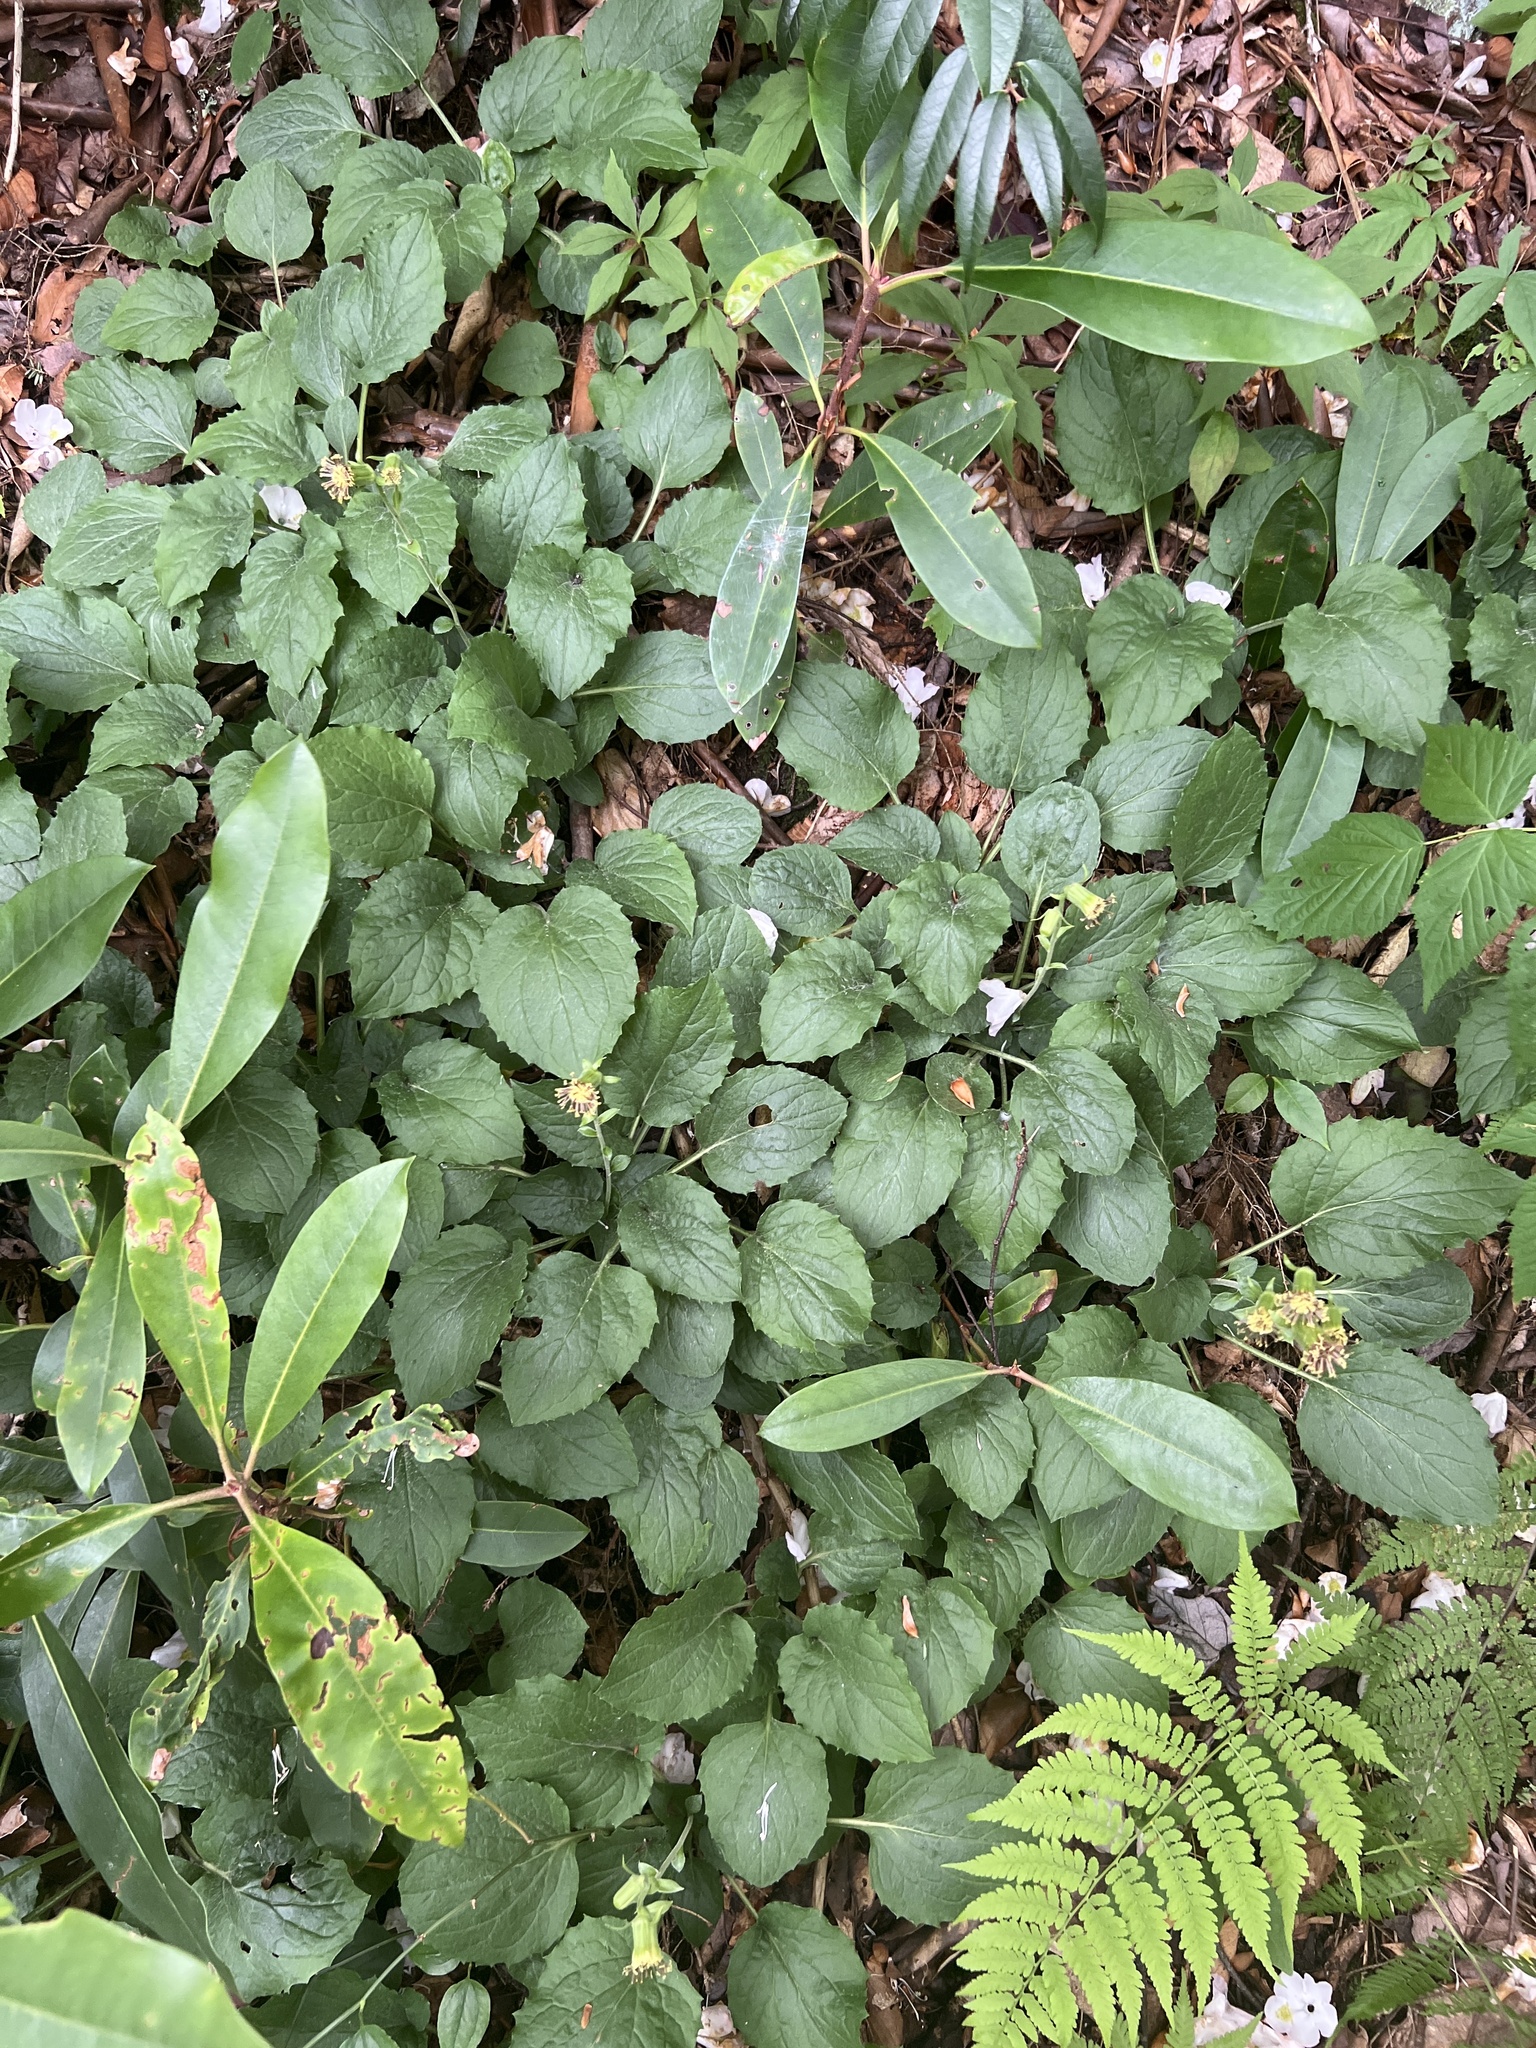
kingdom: Plantae
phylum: Tracheophyta
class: Magnoliopsida
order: Asterales
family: Asteraceae
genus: Rugelia
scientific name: Rugelia nudicaulis
